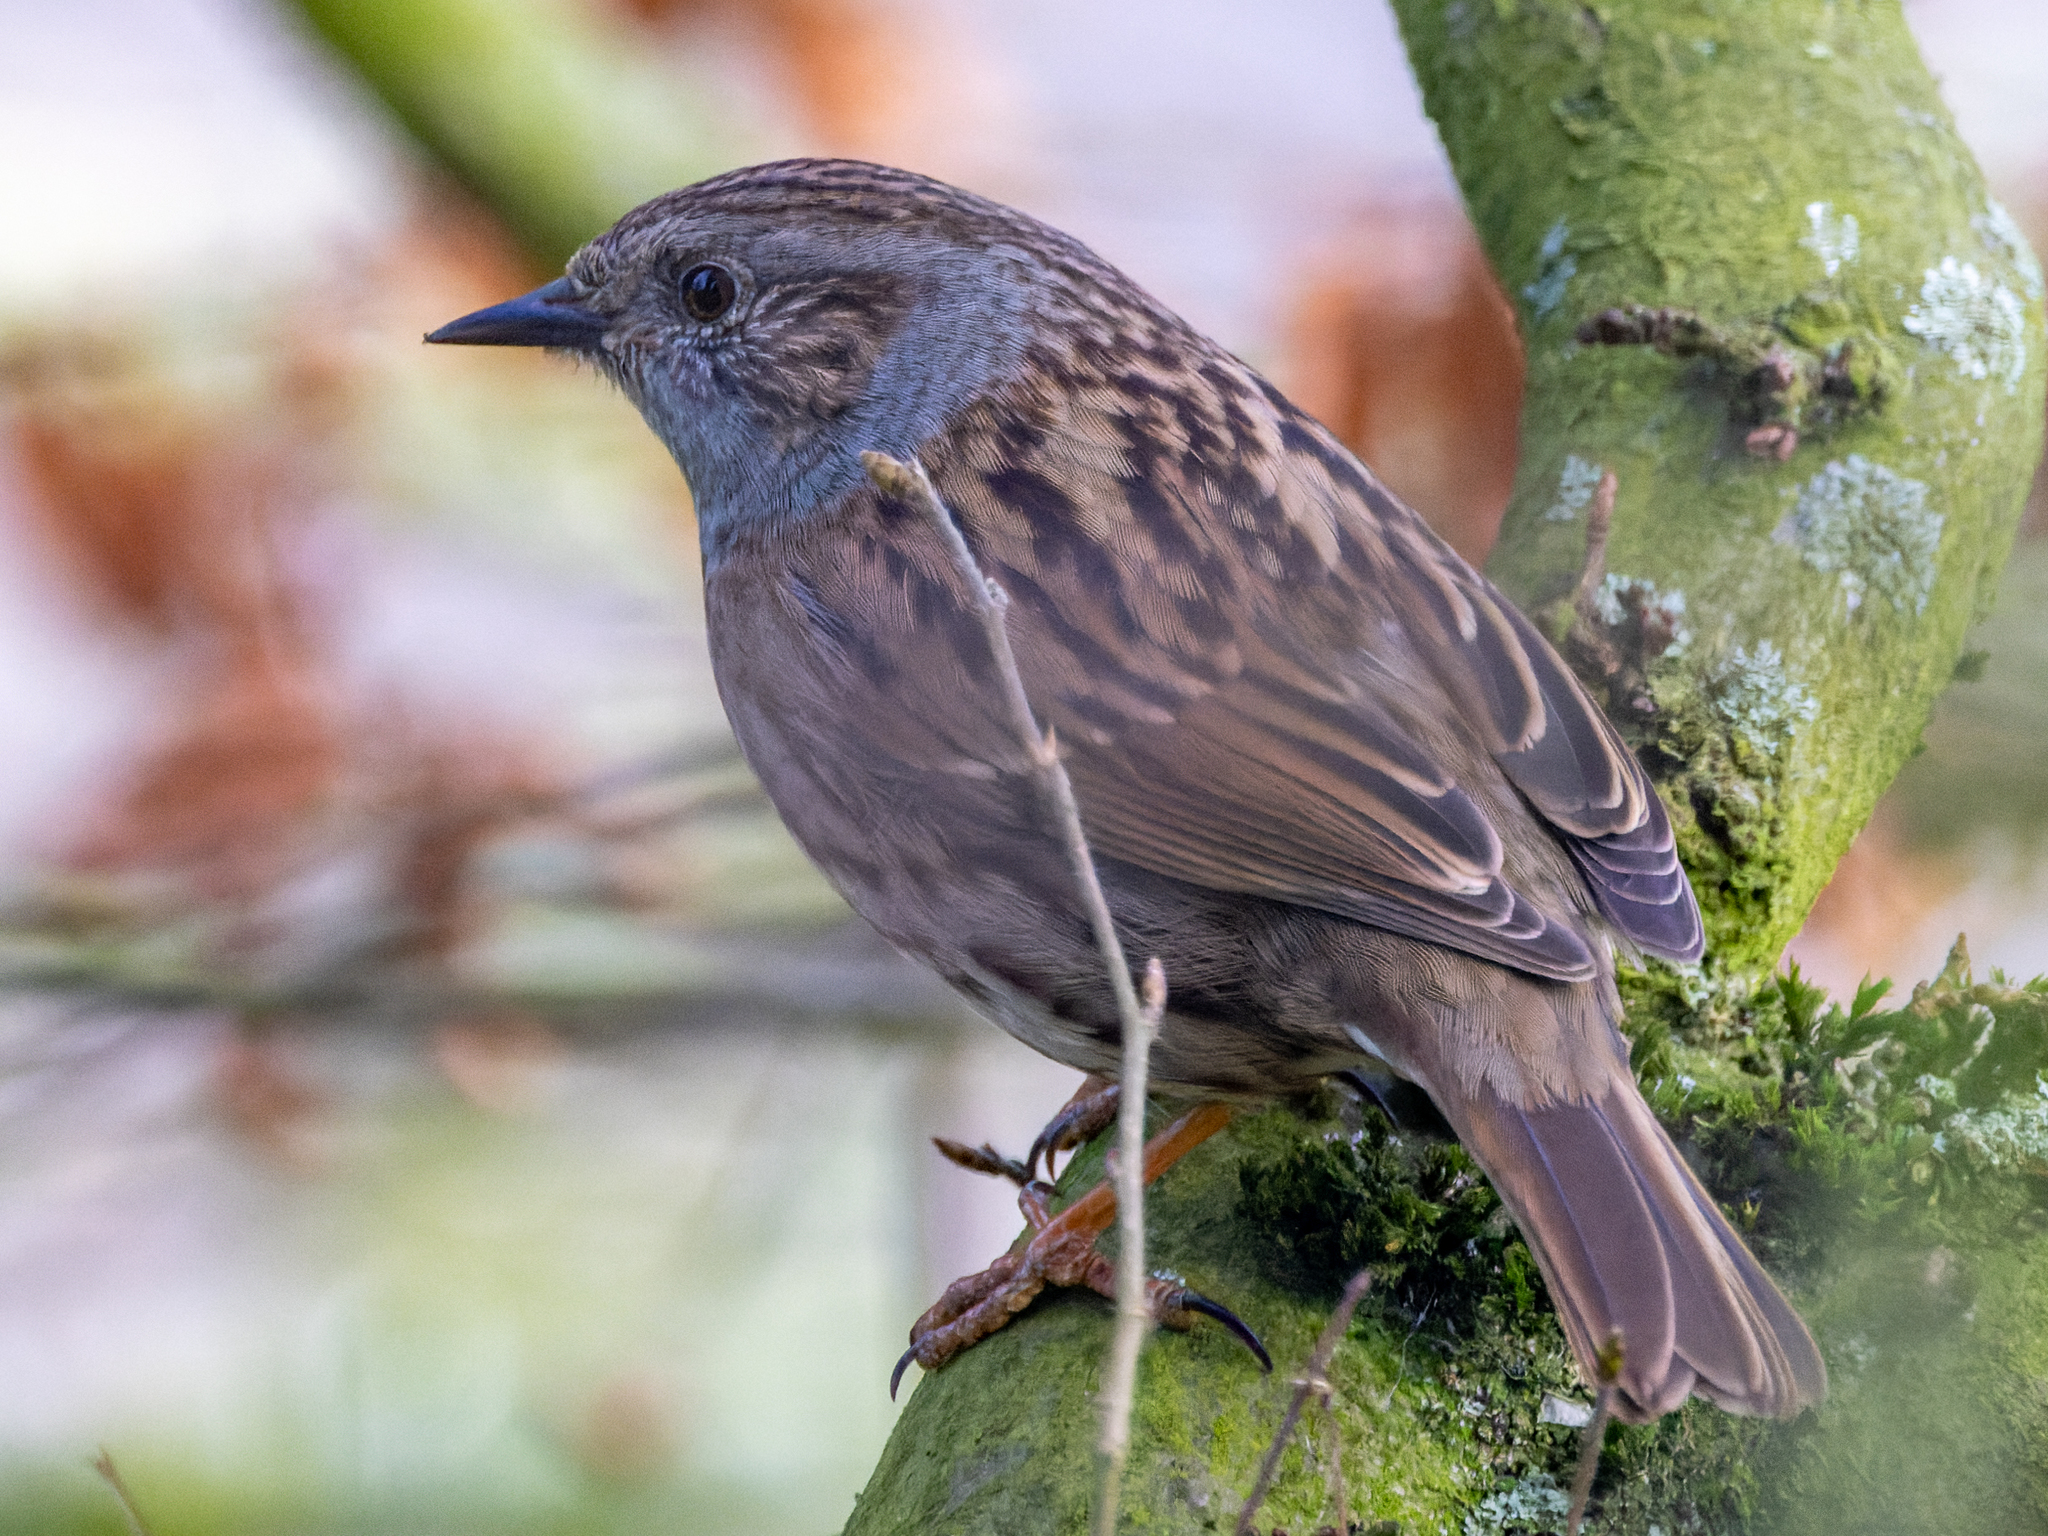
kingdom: Animalia
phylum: Chordata
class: Aves
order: Passeriformes
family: Prunellidae
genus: Prunella
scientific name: Prunella modularis
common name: Dunnock
